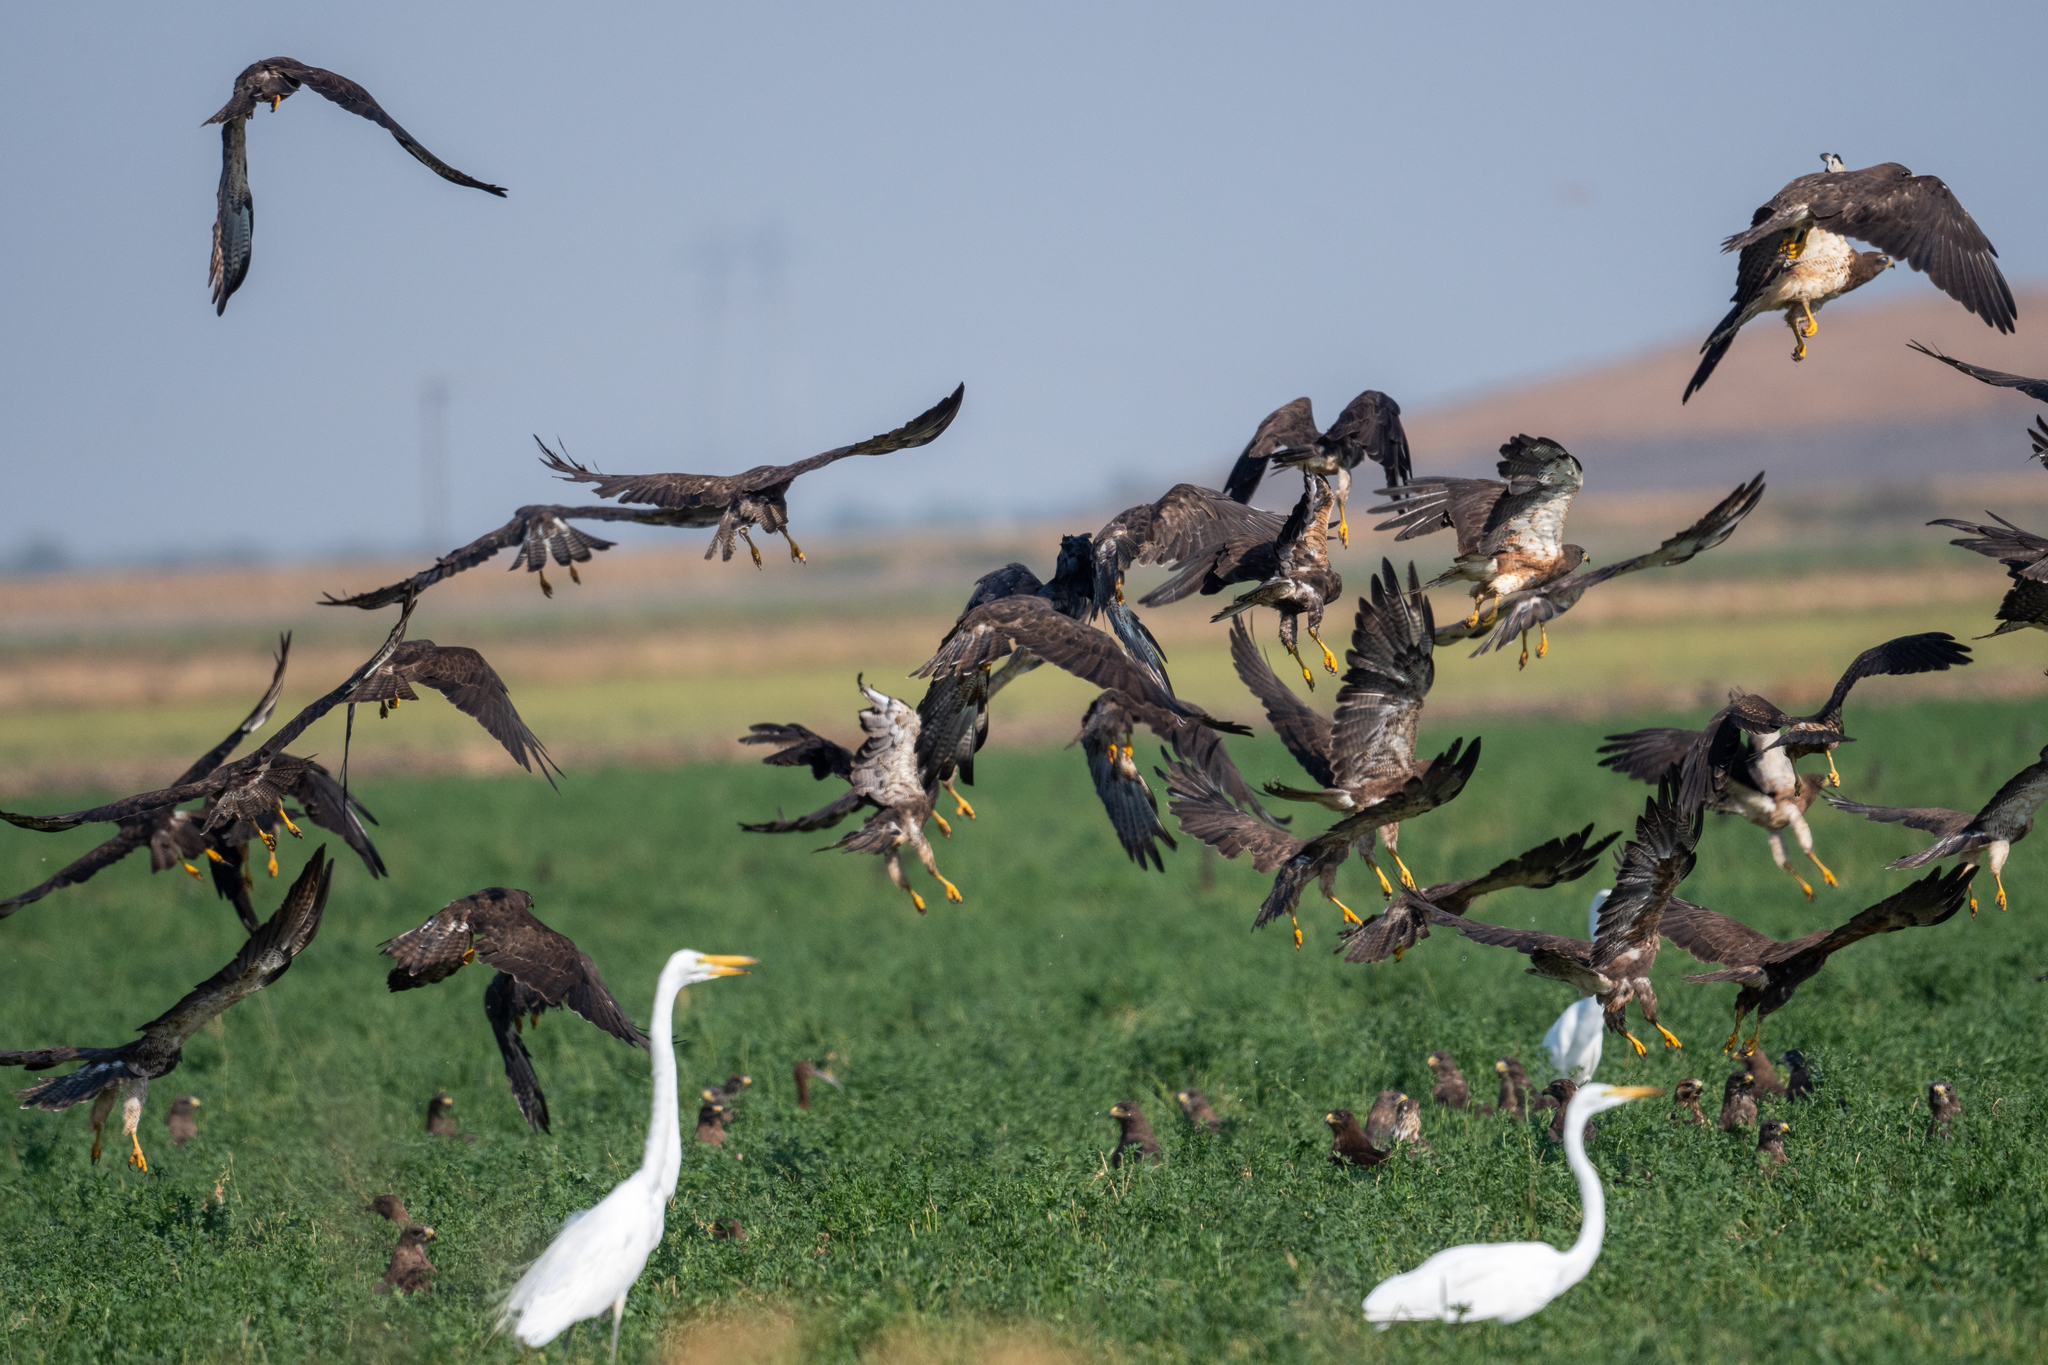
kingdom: Animalia
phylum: Chordata
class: Aves
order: Accipitriformes
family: Accipitridae
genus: Buteo
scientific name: Buteo swainsoni
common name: Swainson's hawk
